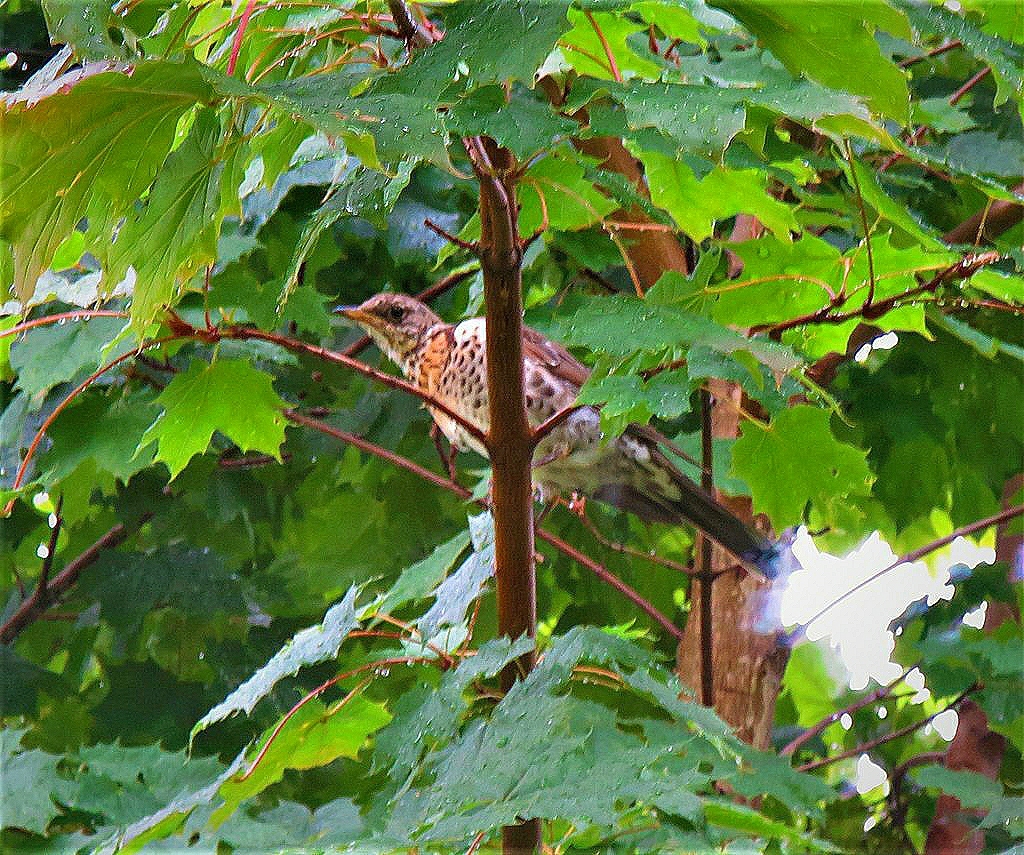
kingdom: Animalia
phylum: Chordata
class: Aves
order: Passeriformes
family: Turdidae
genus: Turdus
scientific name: Turdus pilaris
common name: Fieldfare
